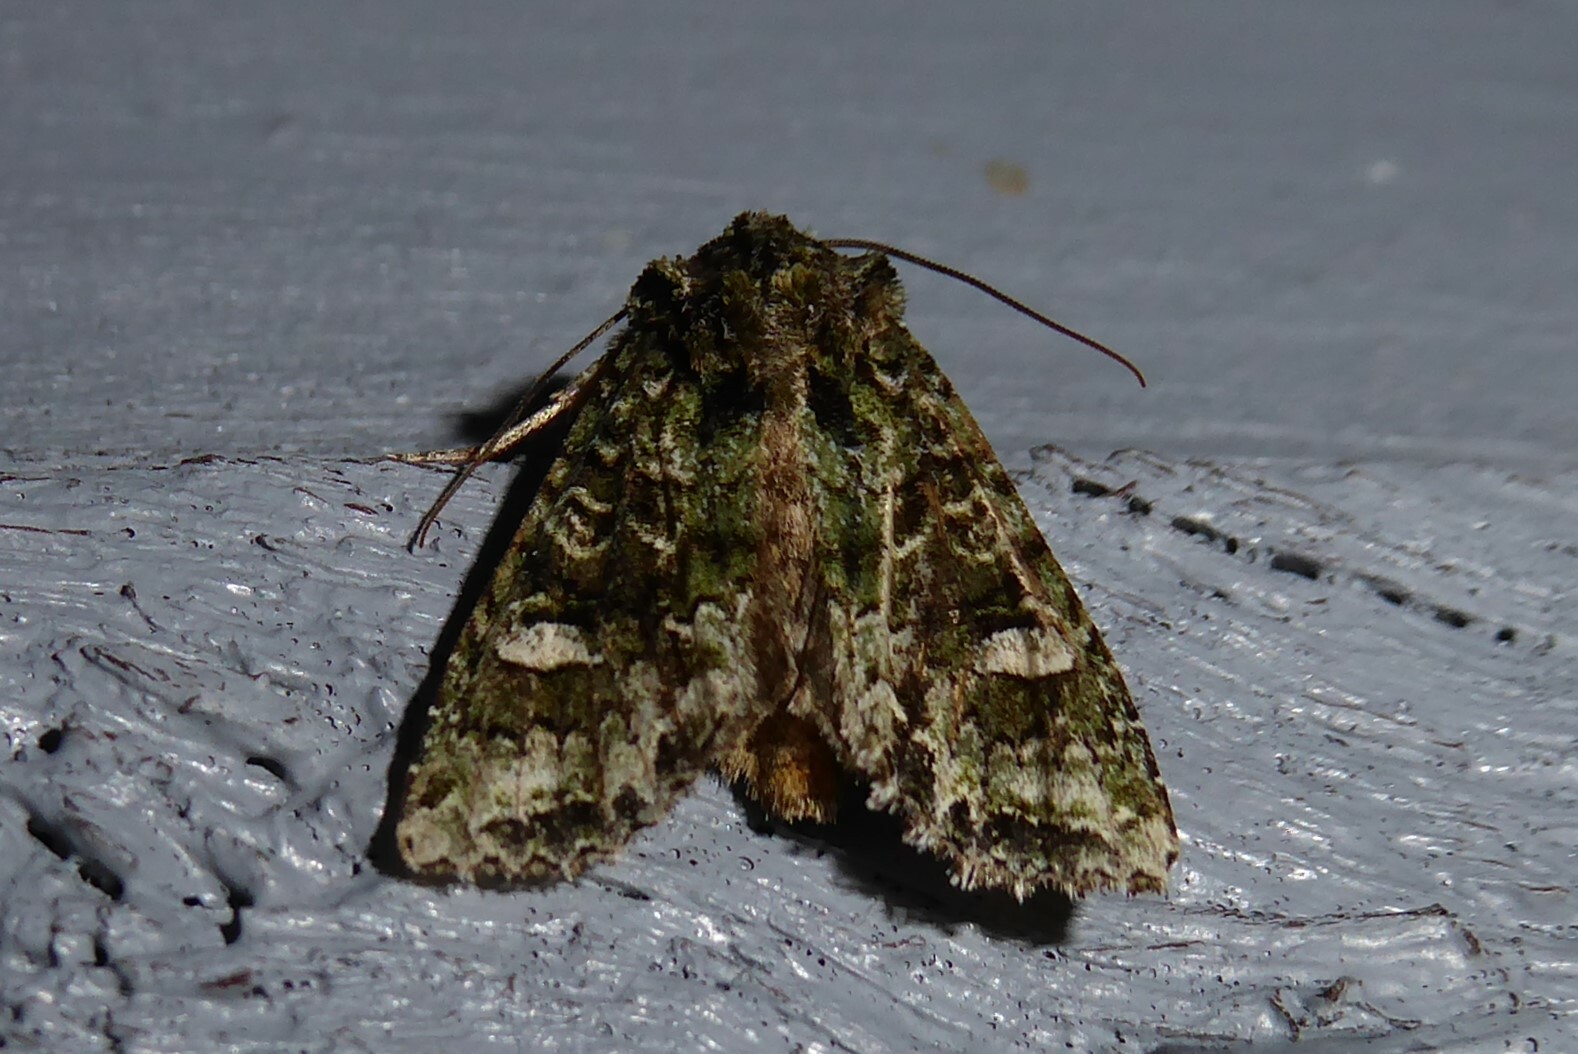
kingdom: Animalia
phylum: Arthropoda
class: Insecta
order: Lepidoptera
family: Noctuidae
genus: Ichneutica
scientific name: Ichneutica
